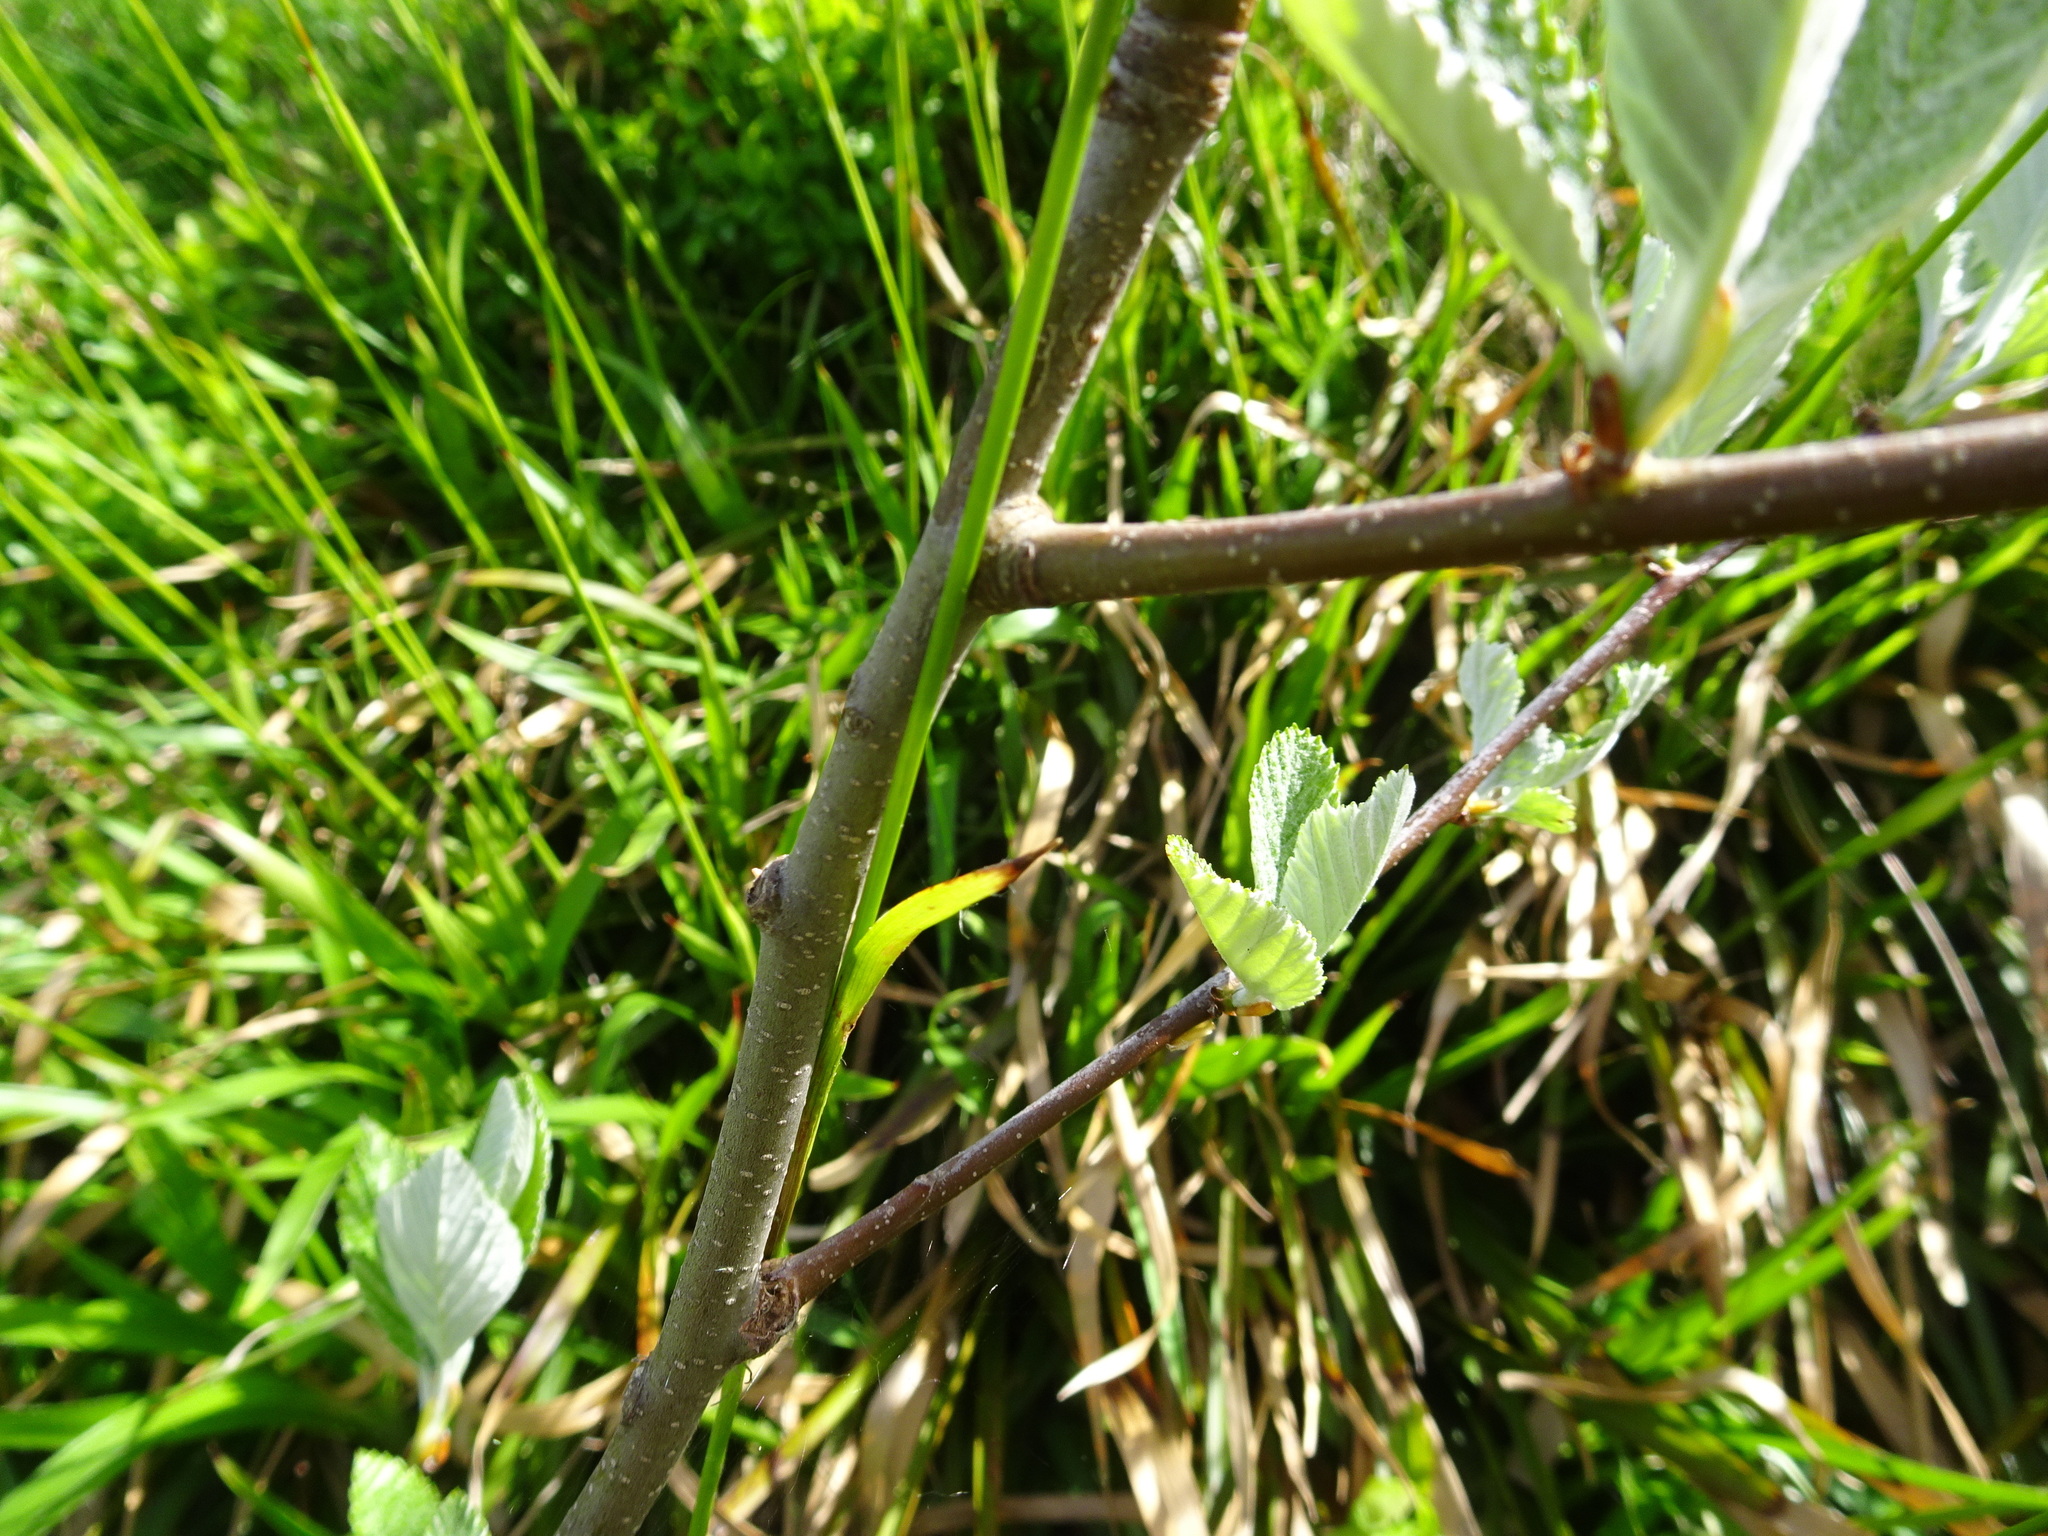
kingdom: Plantae
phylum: Tracheophyta
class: Magnoliopsida
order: Rosales
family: Rosaceae
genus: Aria
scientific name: Aria edulis
